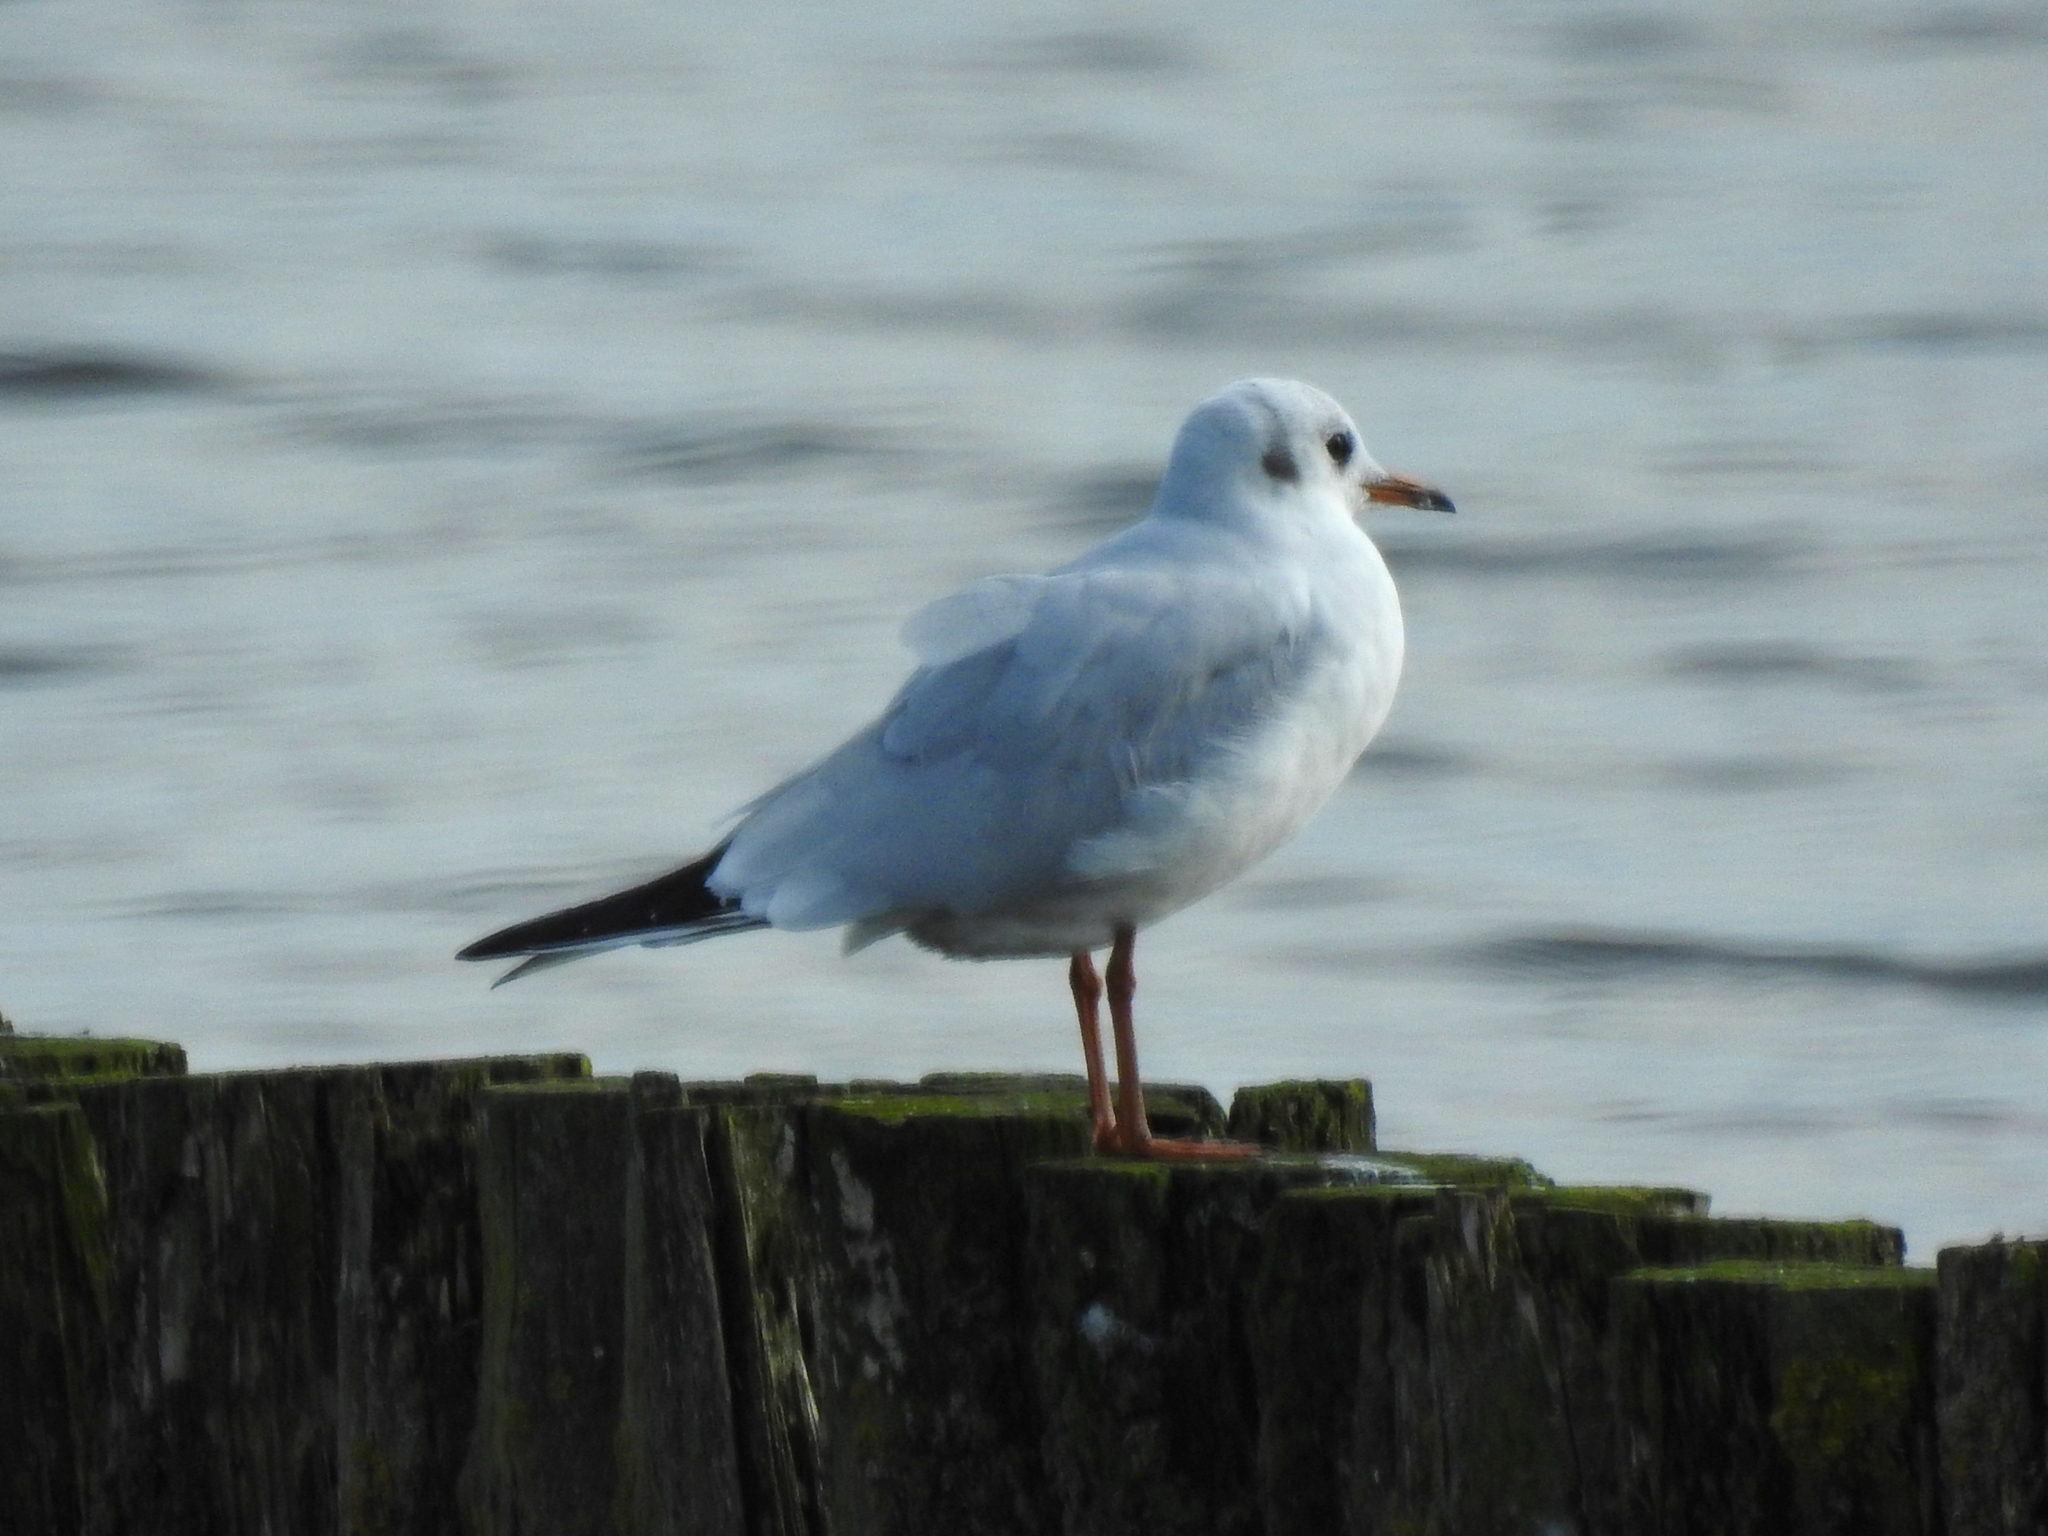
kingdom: Animalia
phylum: Chordata
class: Aves
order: Charadriiformes
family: Laridae
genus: Chroicocephalus
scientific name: Chroicocephalus ridibundus
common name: Black-headed gull
